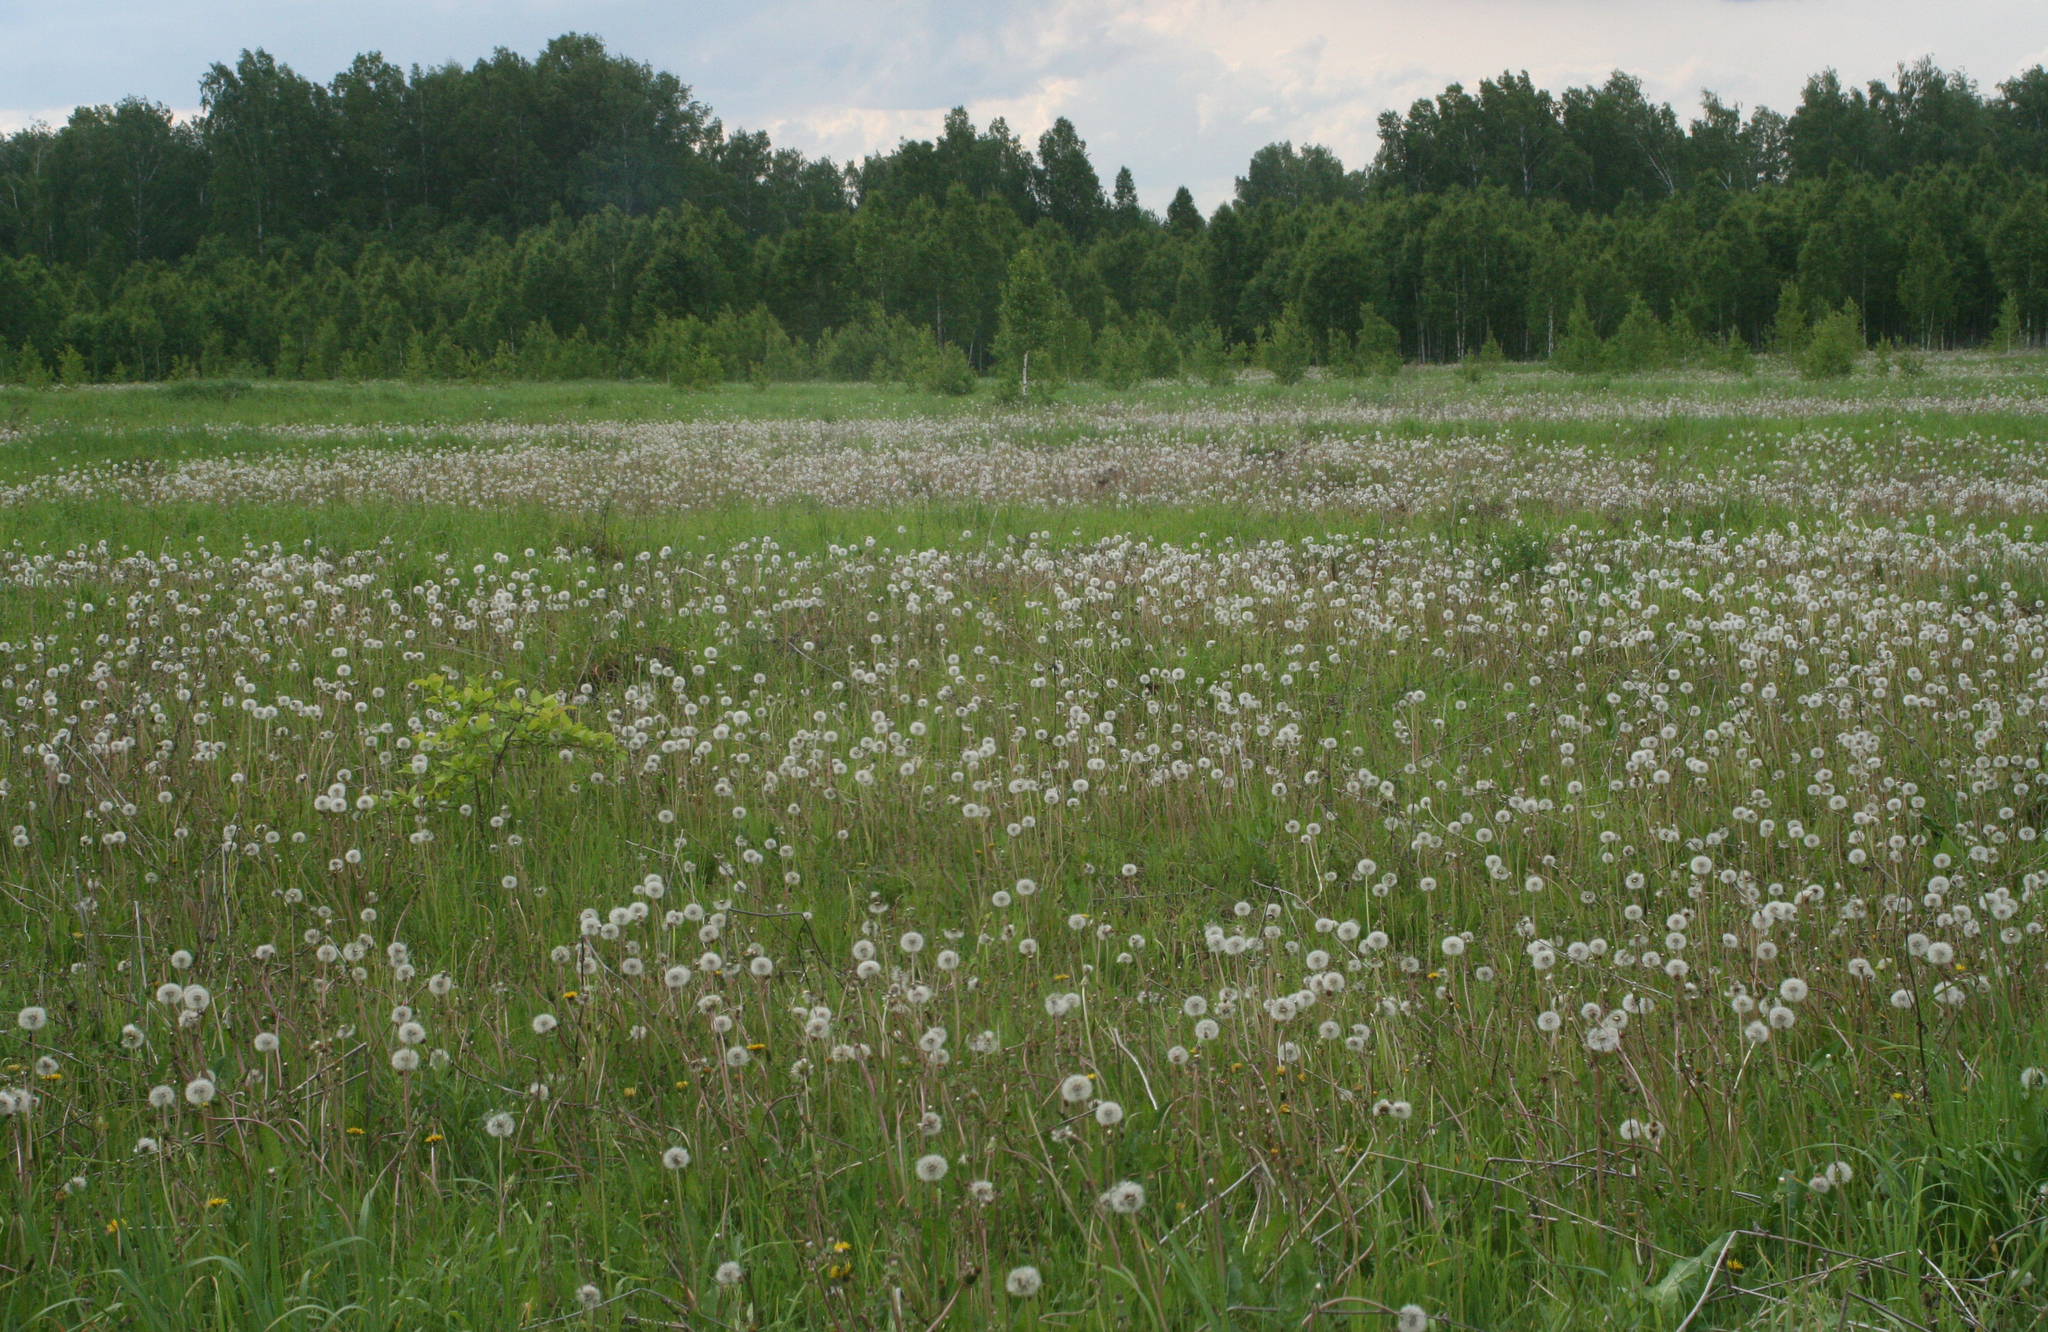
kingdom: Plantae
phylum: Tracheophyta
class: Magnoliopsida
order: Asterales
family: Asteraceae
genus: Taraxacum
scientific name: Taraxacum officinale
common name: Common dandelion
